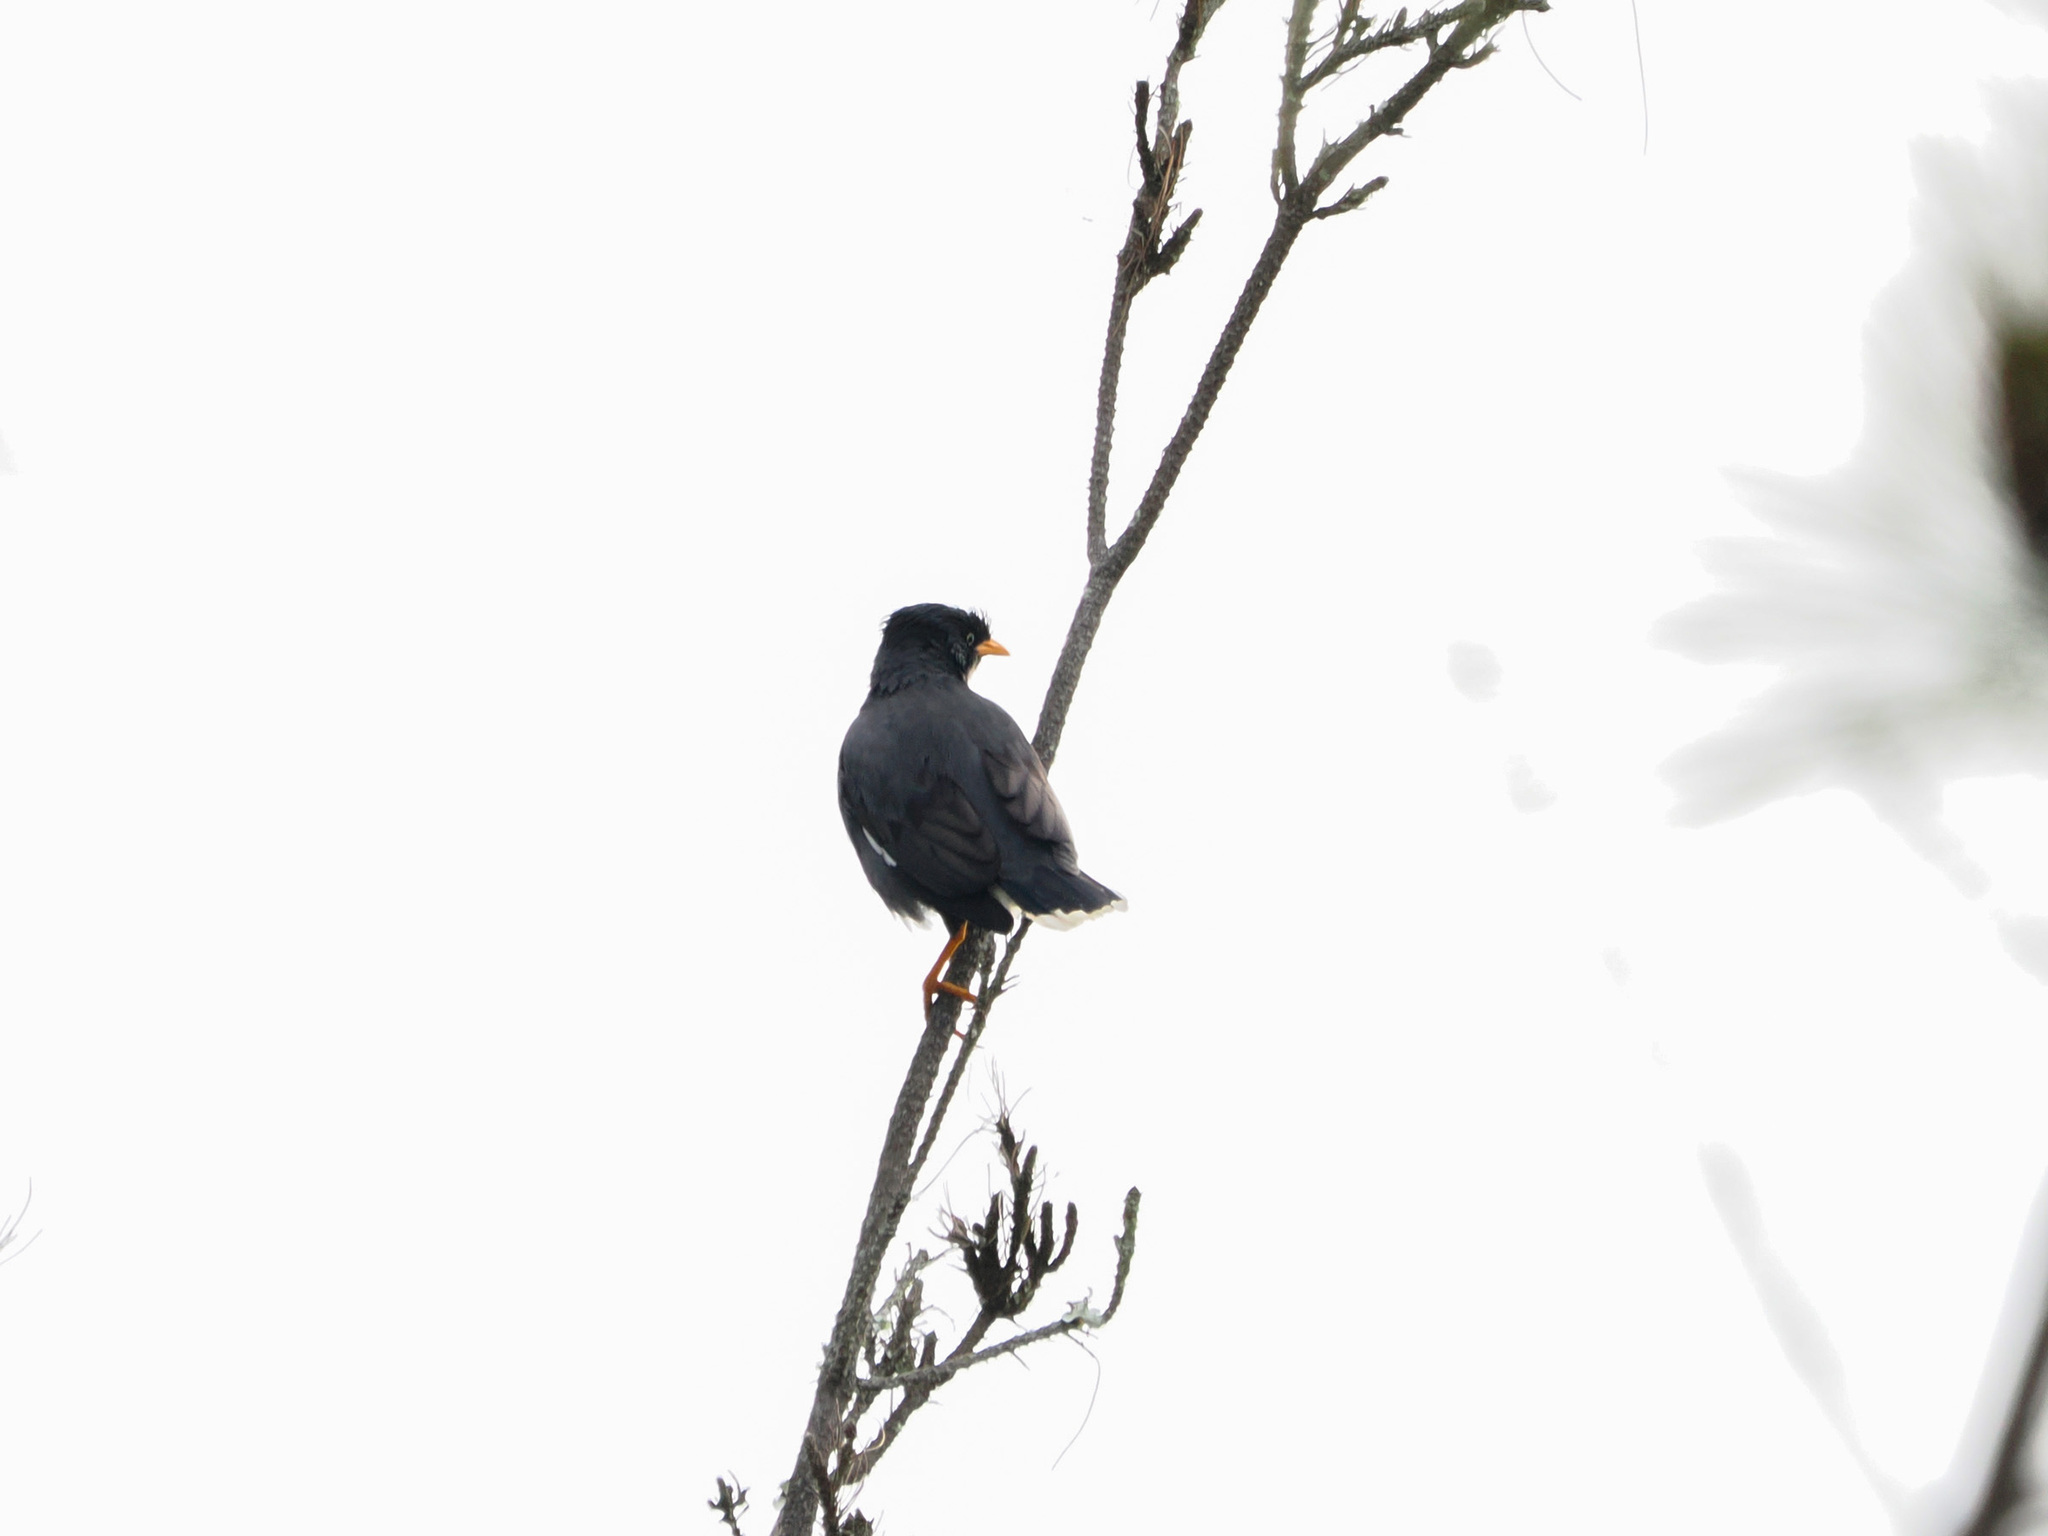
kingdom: Animalia
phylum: Chordata
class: Aves
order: Passeriformes
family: Sturnidae
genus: Acridotheres
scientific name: Acridotheres javanicus
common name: Javan myna
